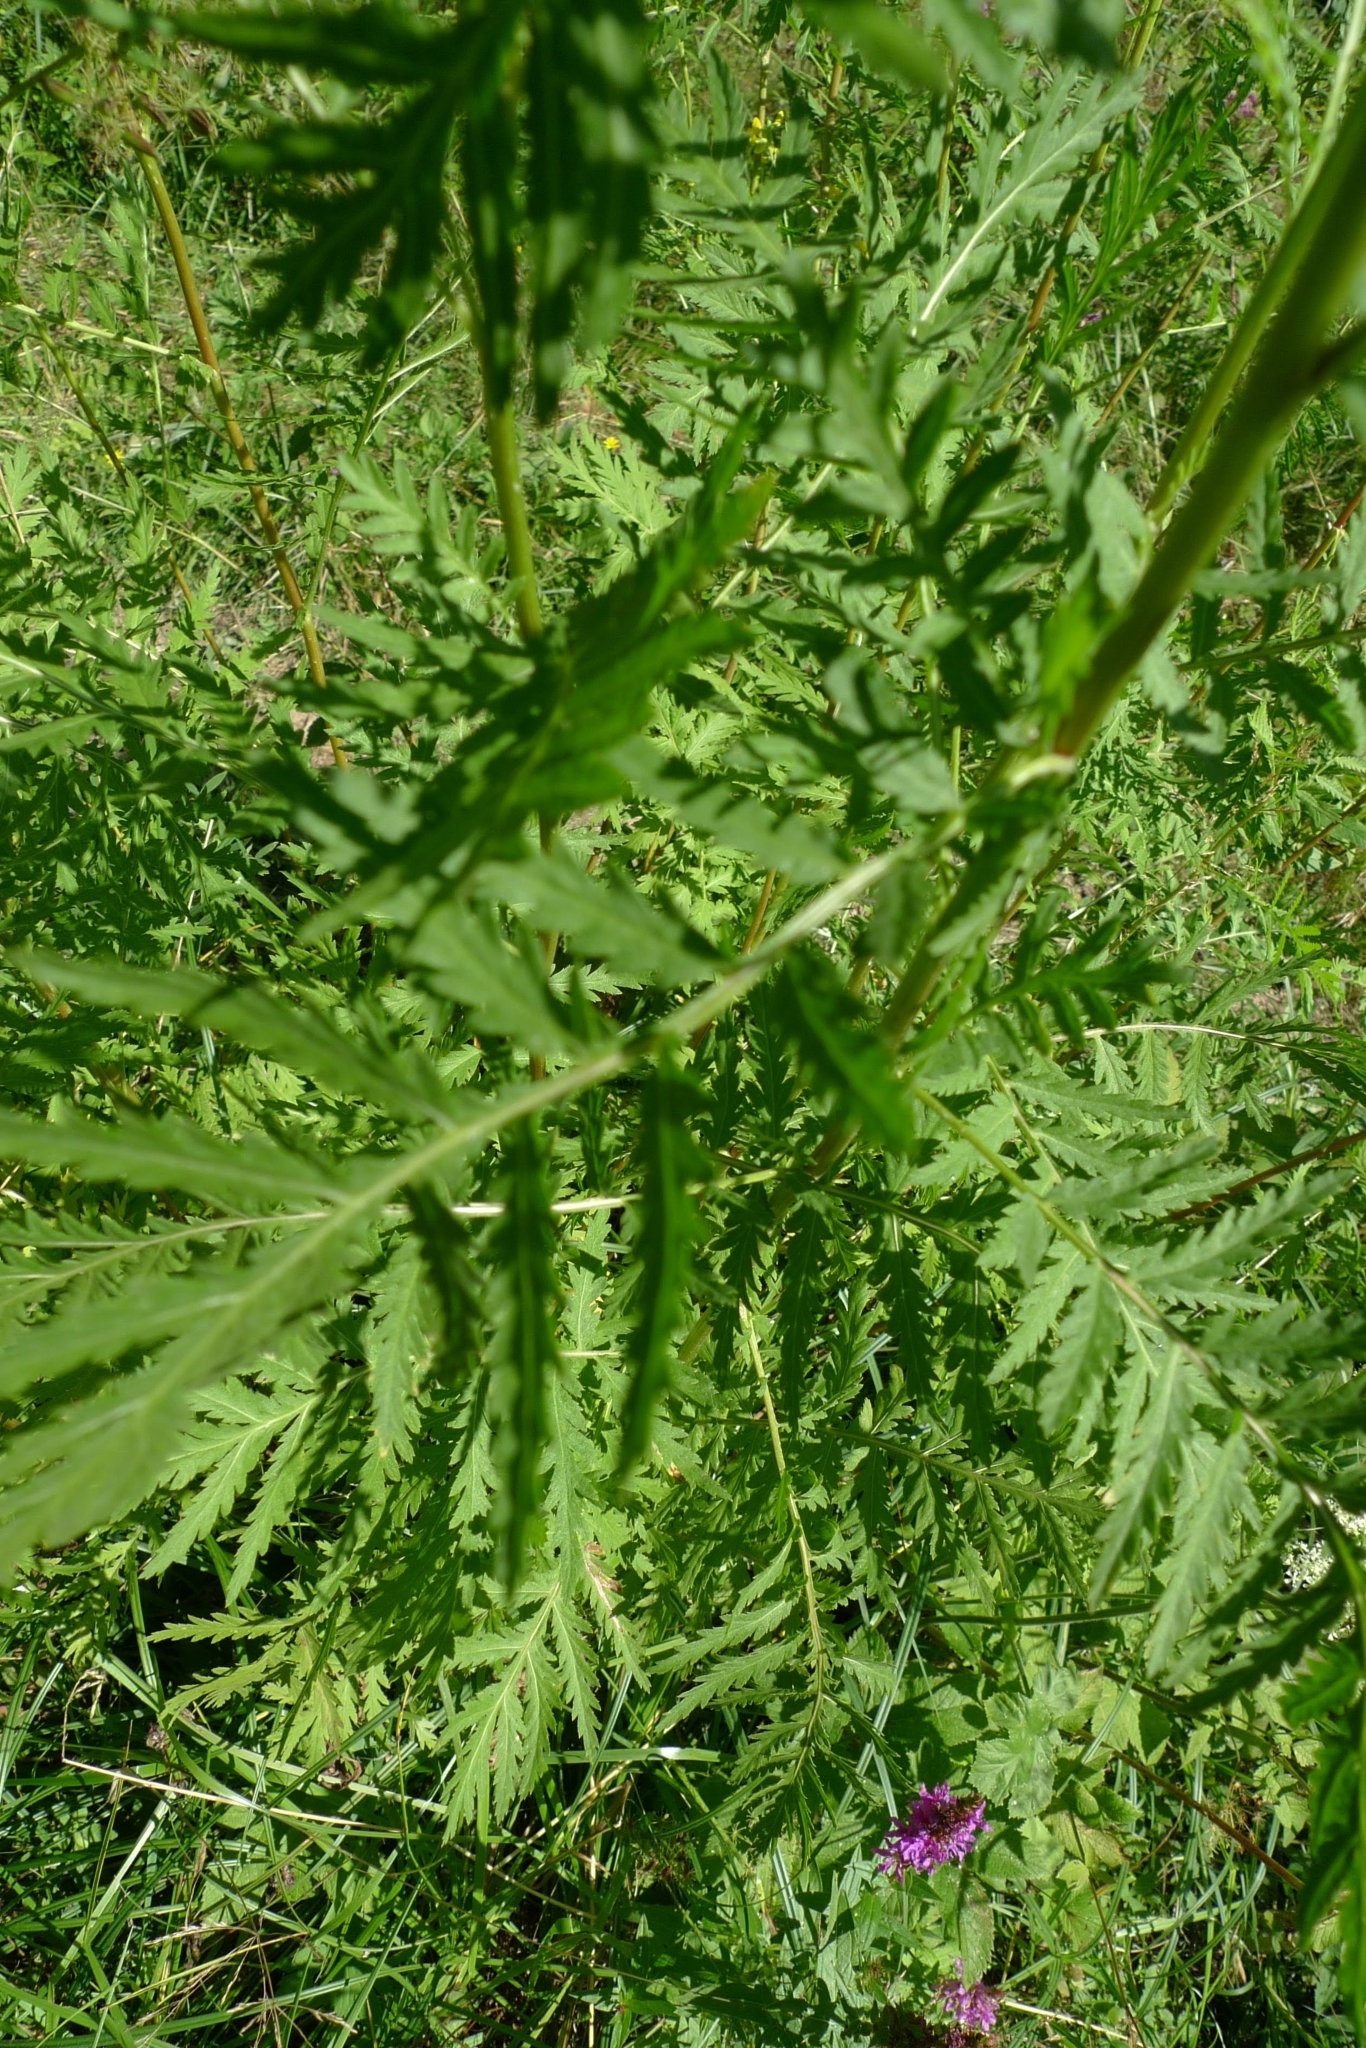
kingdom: Plantae
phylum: Tracheophyta
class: Magnoliopsida
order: Asterales
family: Asteraceae
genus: Tanacetum
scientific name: Tanacetum vulgare
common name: Common tansy
